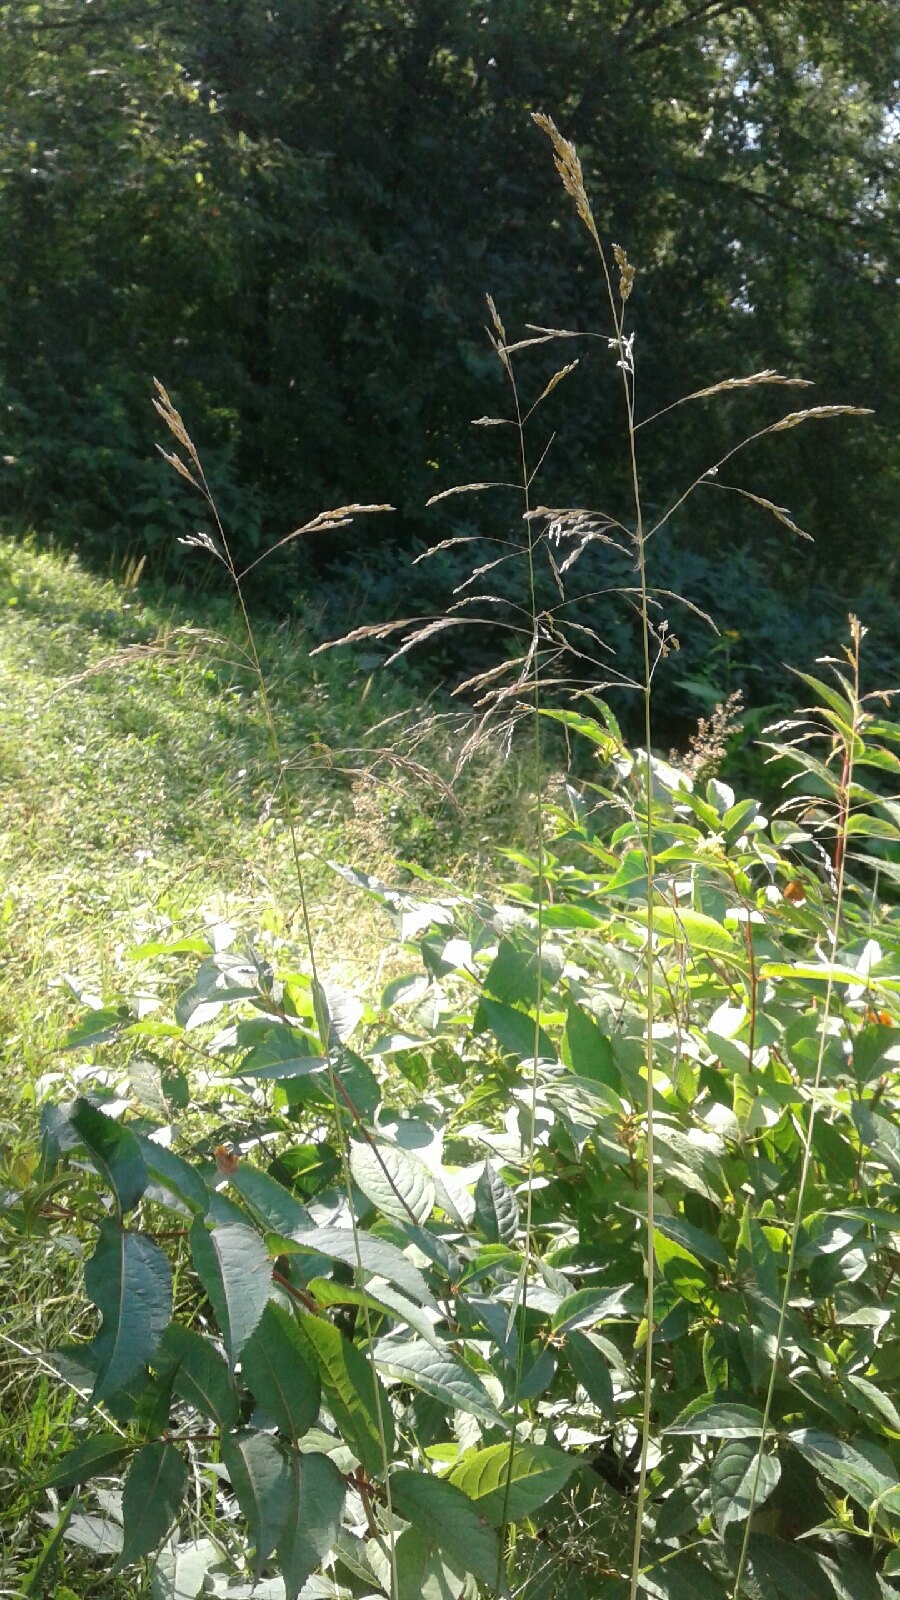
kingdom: Plantae
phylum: Tracheophyta
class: Liliopsida
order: Poales
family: Poaceae
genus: Deschampsia
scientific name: Deschampsia cespitosa
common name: Tufted hair-grass
